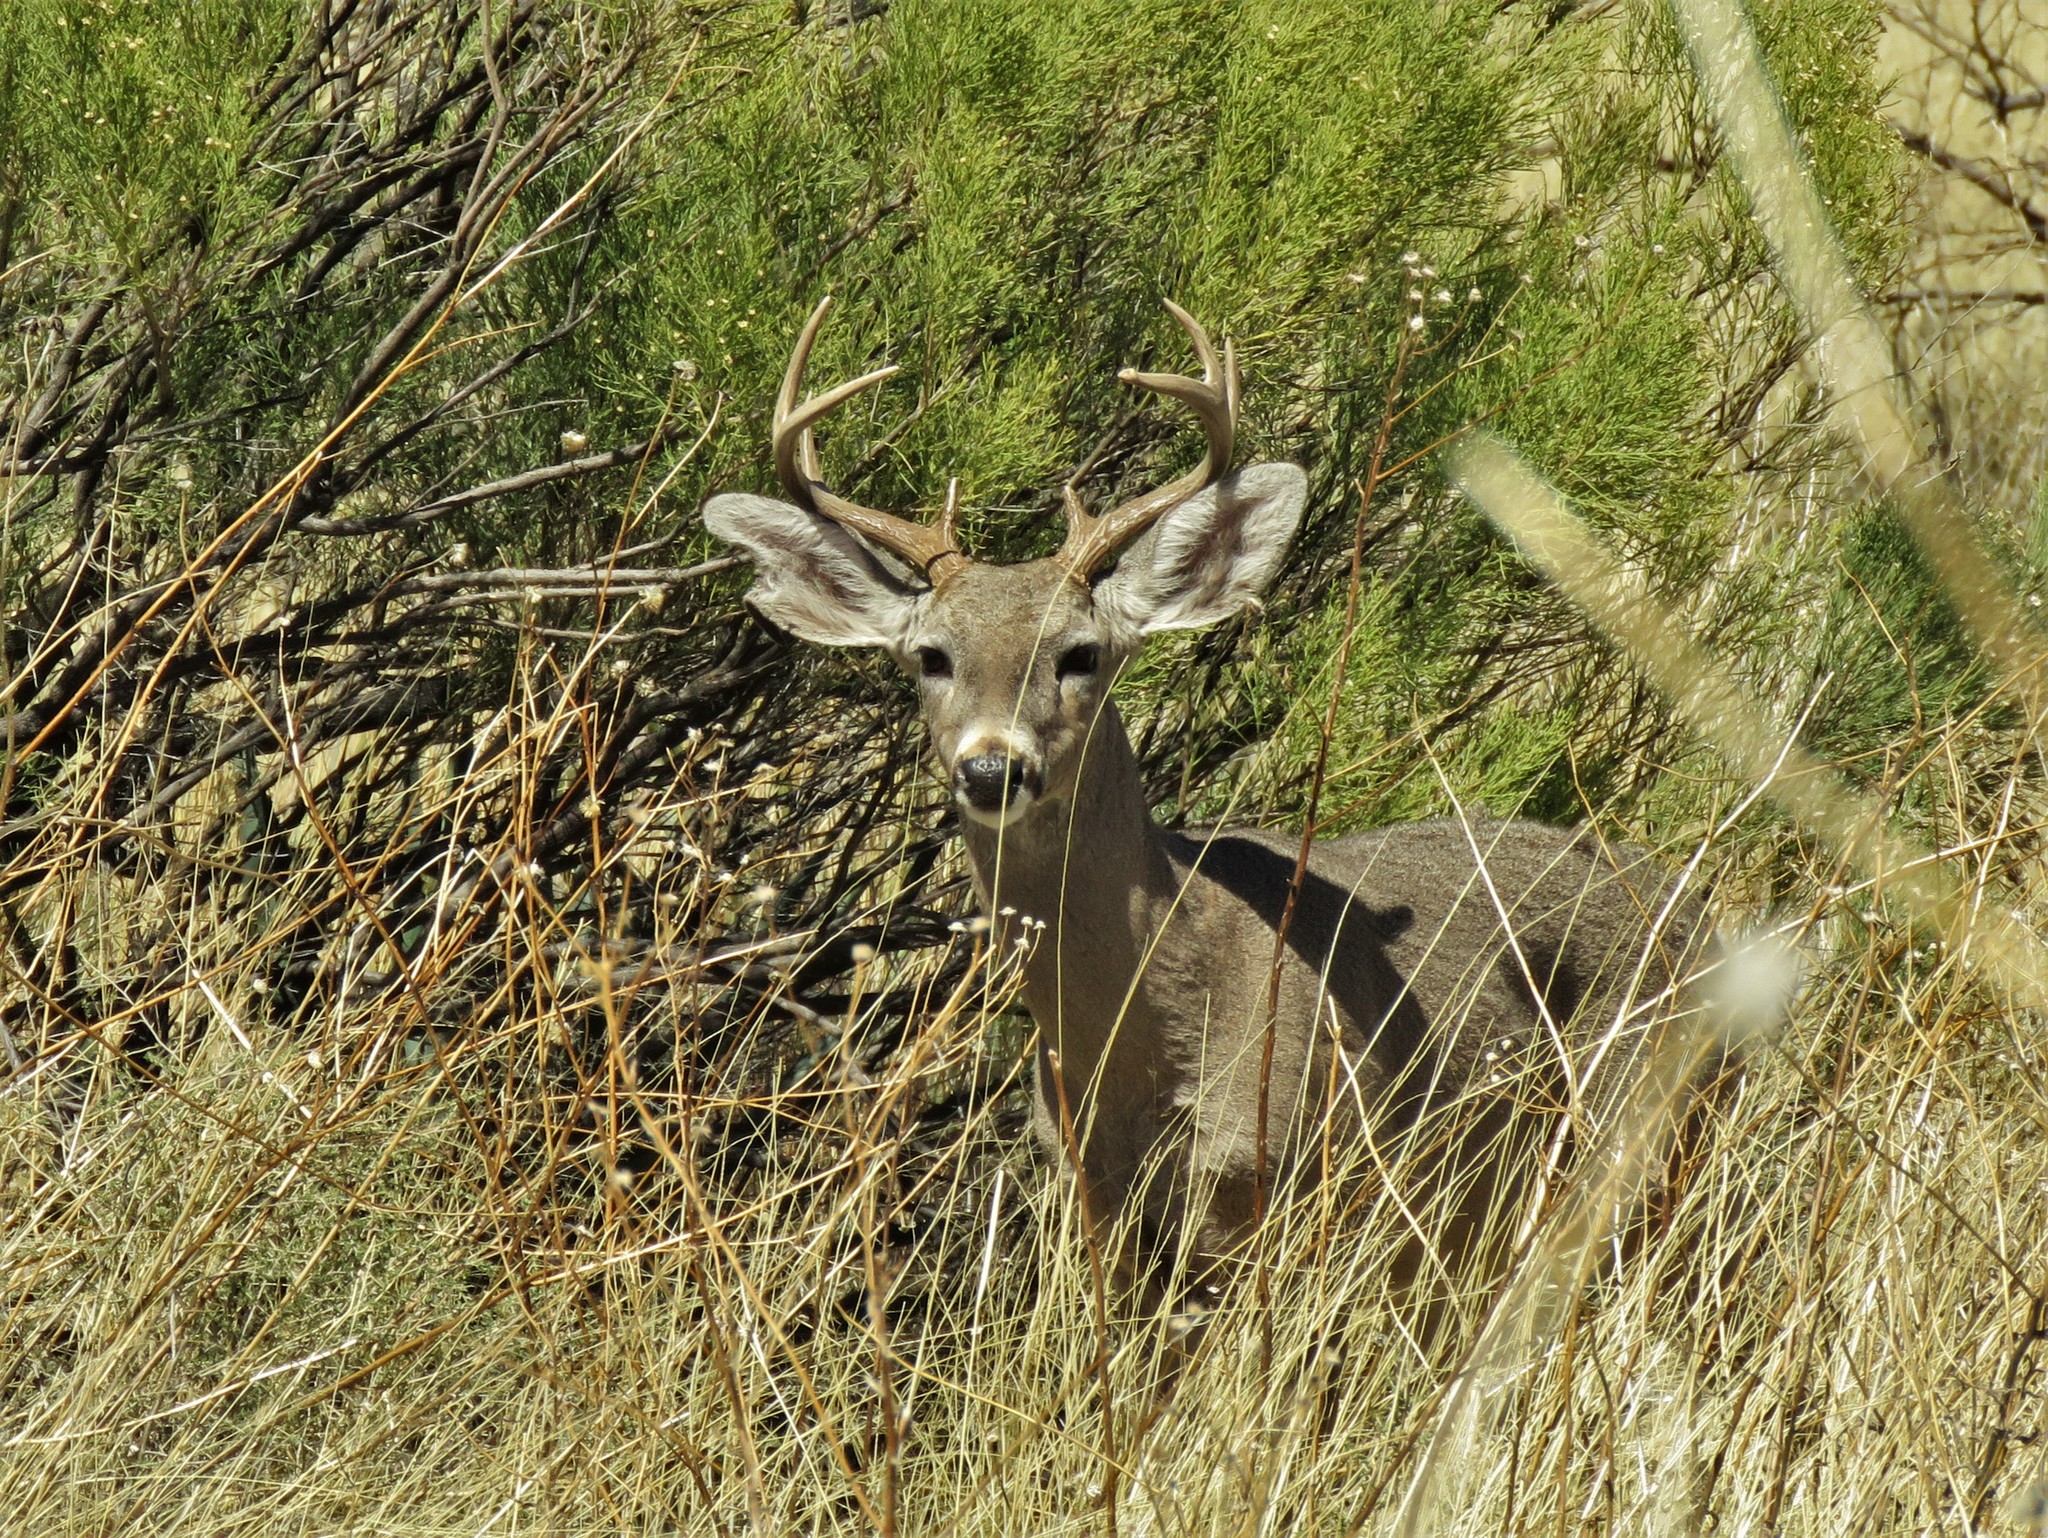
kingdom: Animalia
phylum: Chordata
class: Mammalia
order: Artiodactyla
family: Cervidae
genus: Odocoileus
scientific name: Odocoileus virginianus
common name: White-tailed deer
